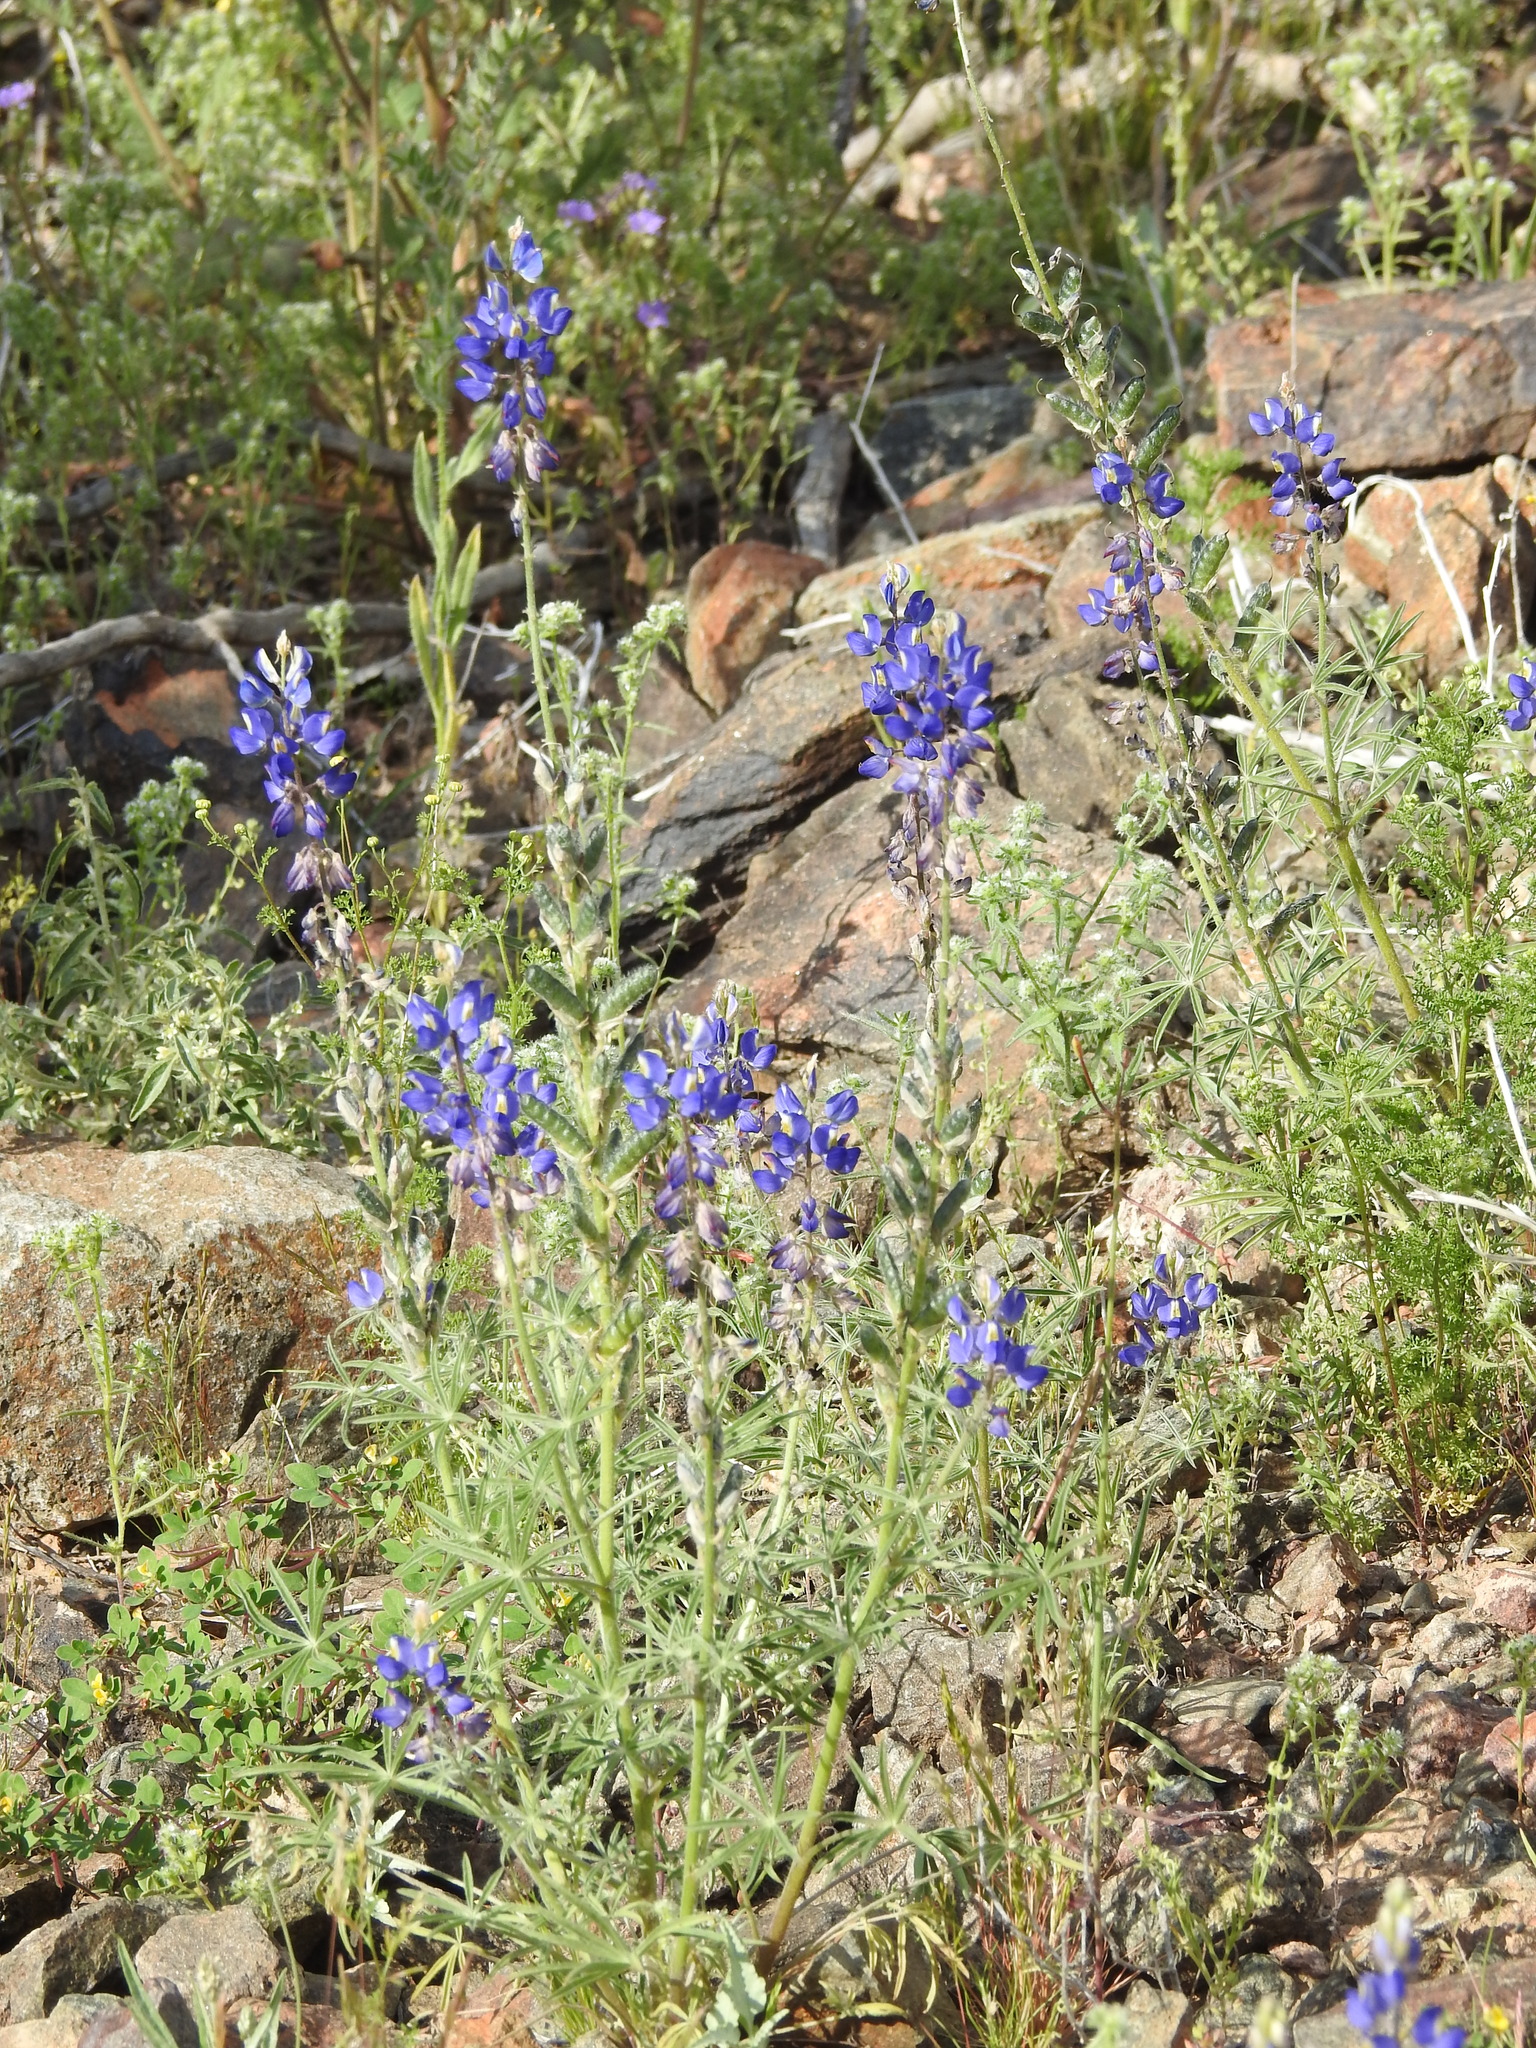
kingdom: Plantae
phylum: Tracheophyta
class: Magnoliopsida
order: Fabales
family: Fabaceae
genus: Lupinus
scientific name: Lupinus sparsiflorus
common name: Coulter's lupine
